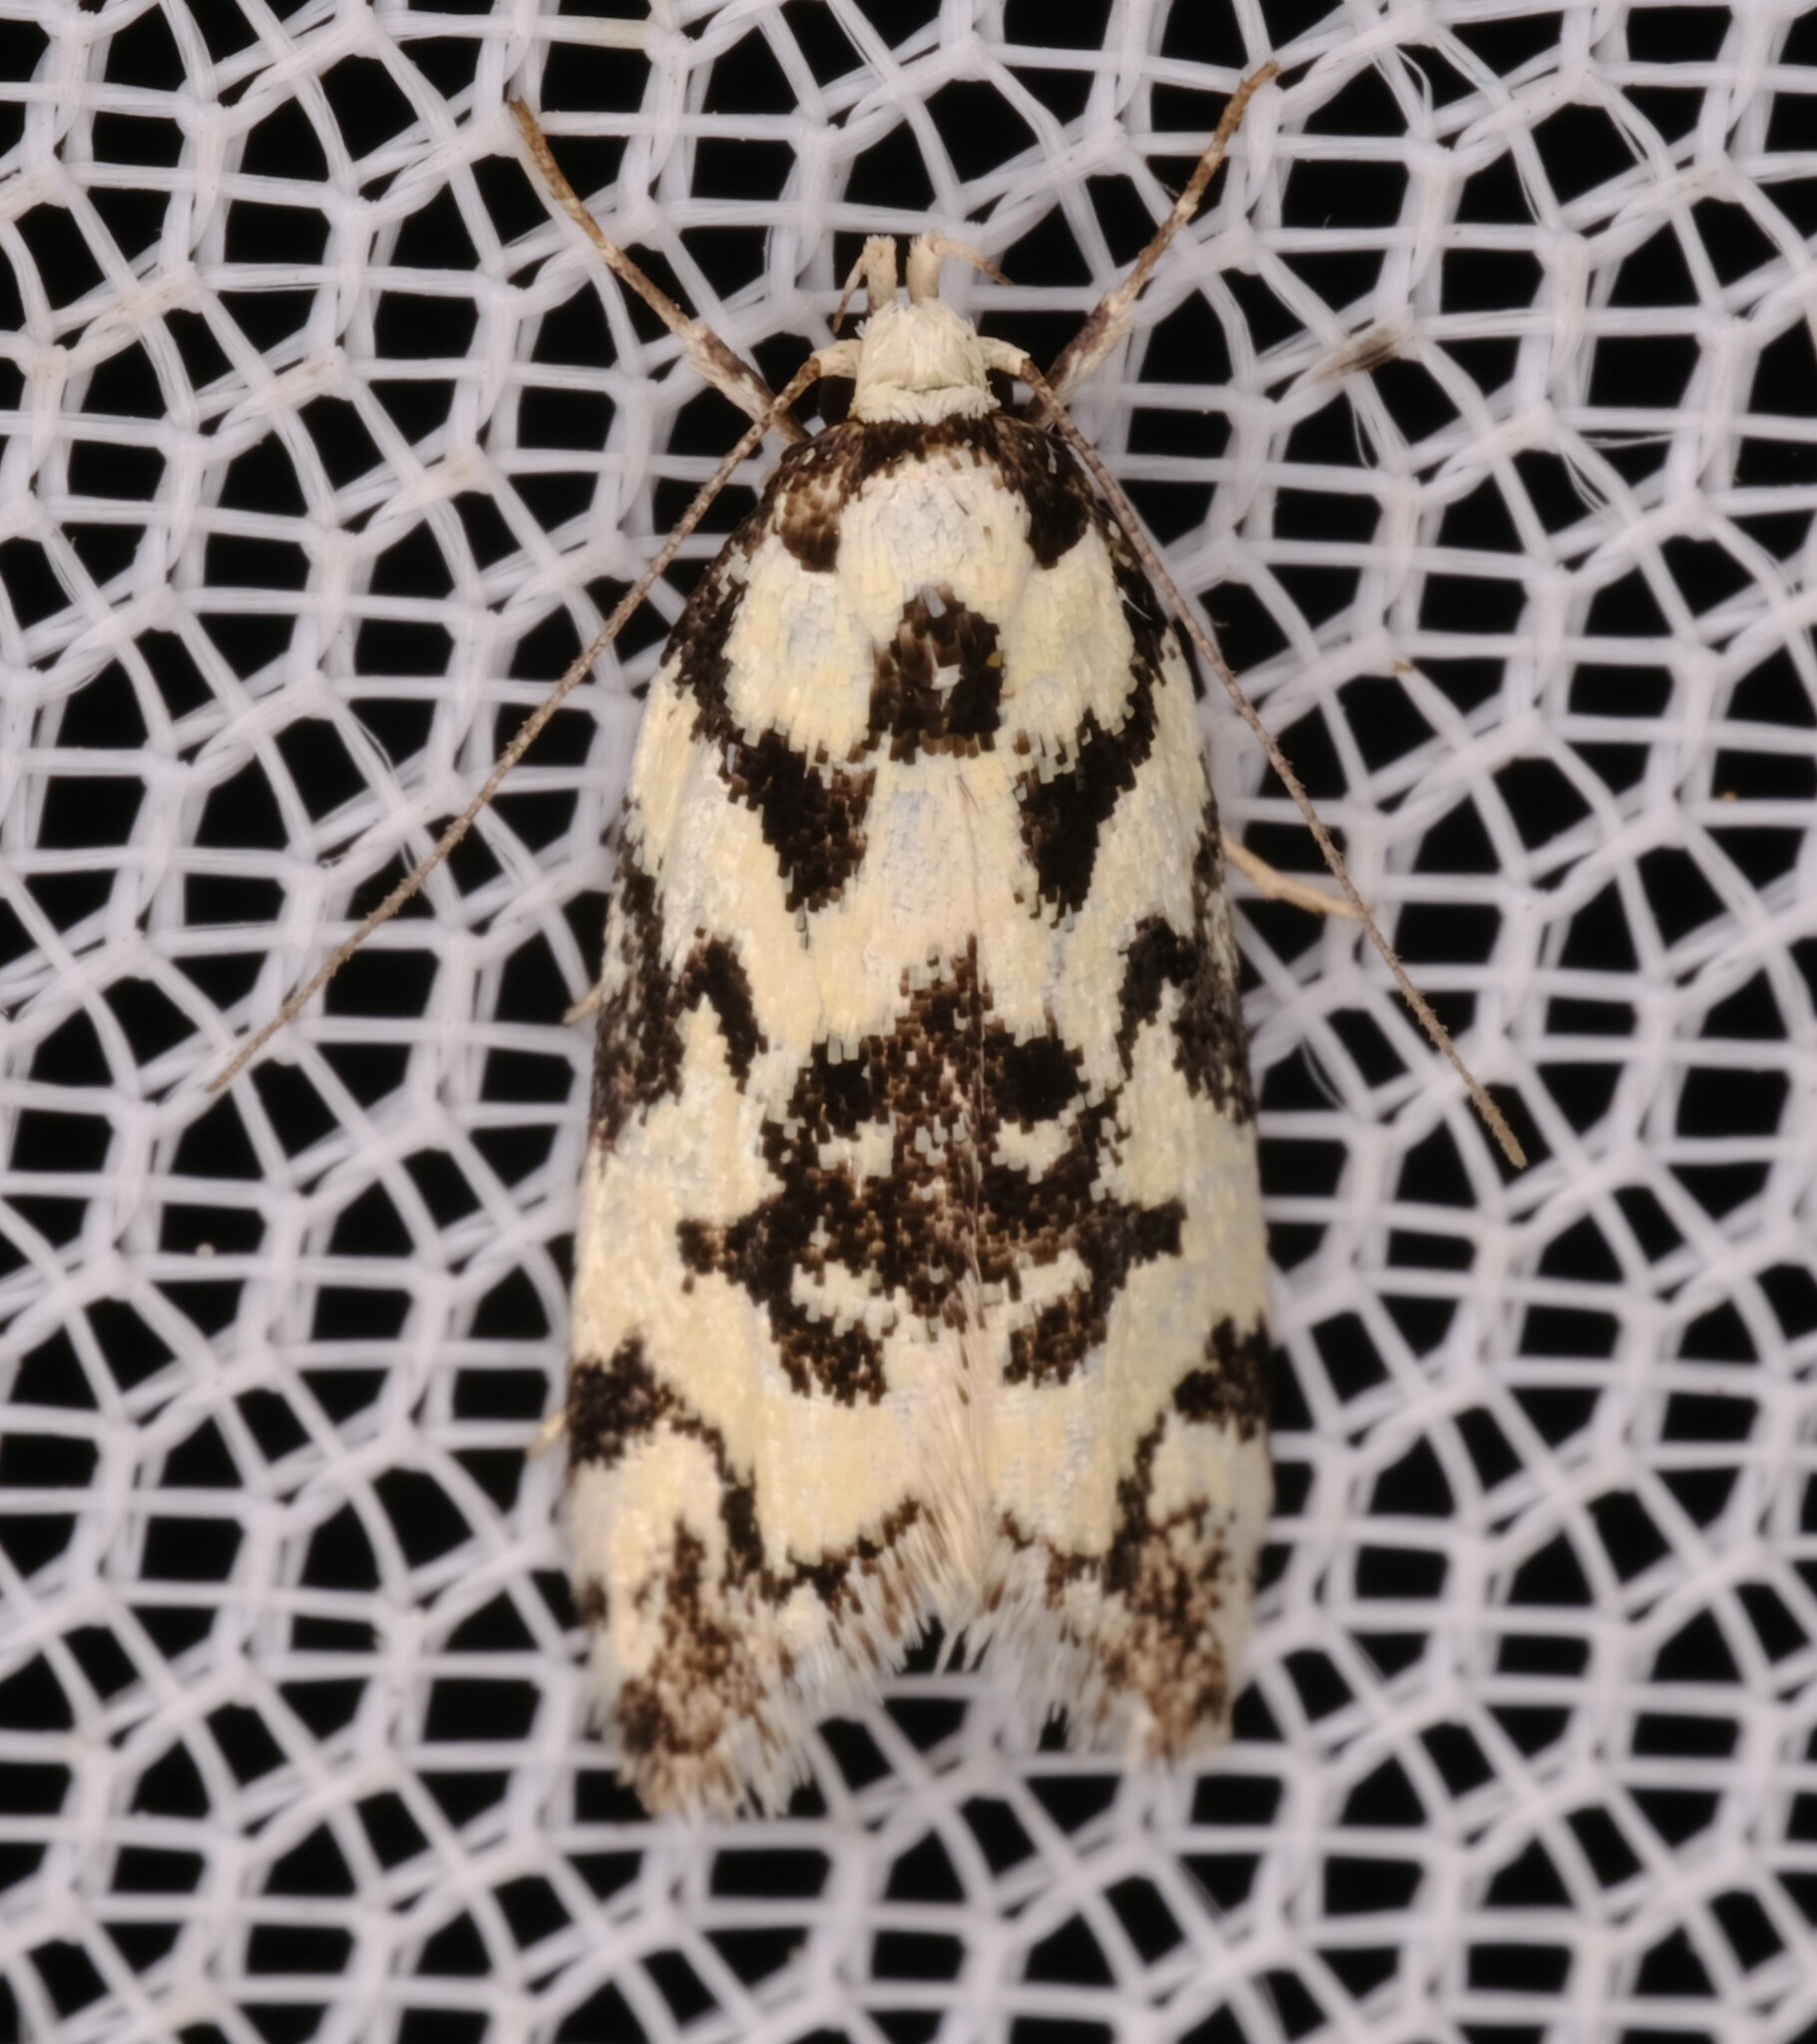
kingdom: Animalia
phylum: Arthropoda
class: Insecta
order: Lepidoptera
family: Oecophoridae
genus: Cosmaresta
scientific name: Cosmaresta hyphanta
